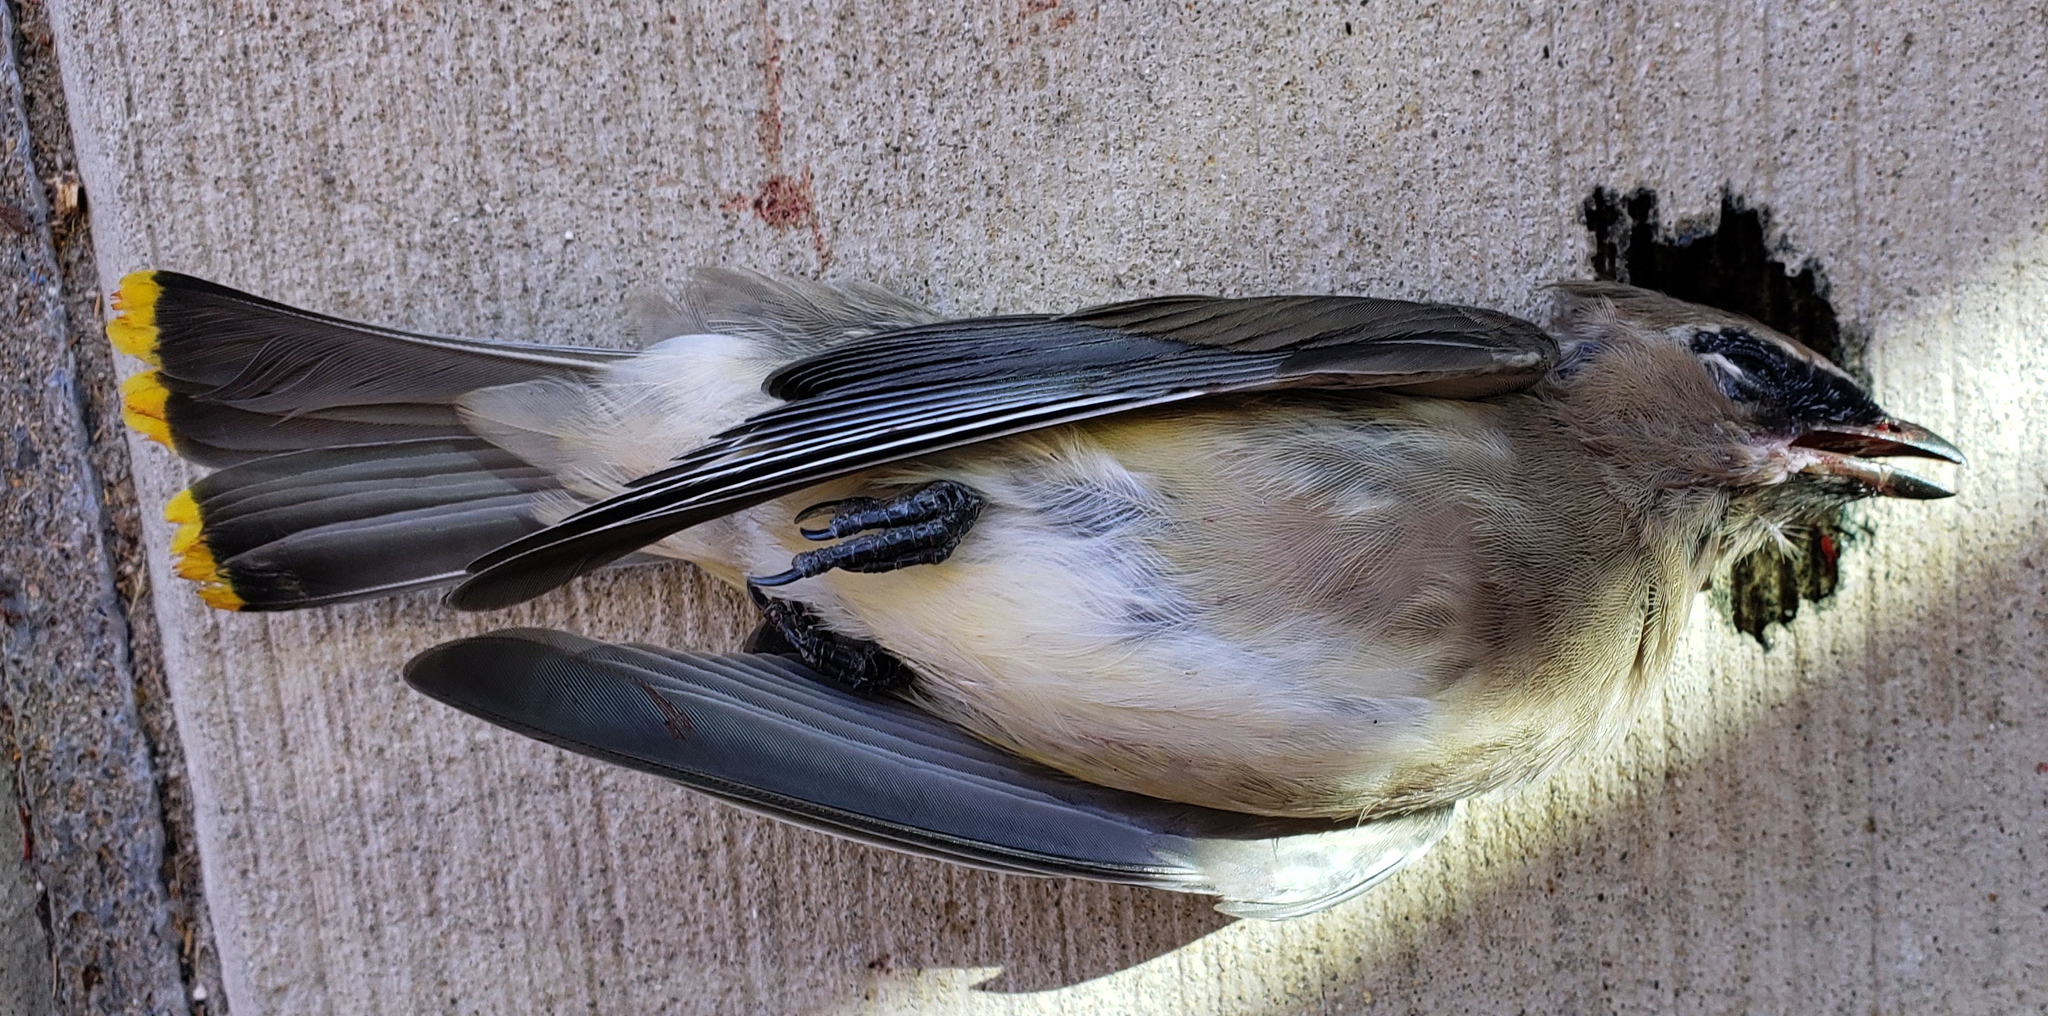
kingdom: Animalia
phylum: Chordata
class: Aves
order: Passeriformes
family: Bombycillidae
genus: Bombycilla
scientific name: Bombycilla cedrorum
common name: Cedar waxwing
